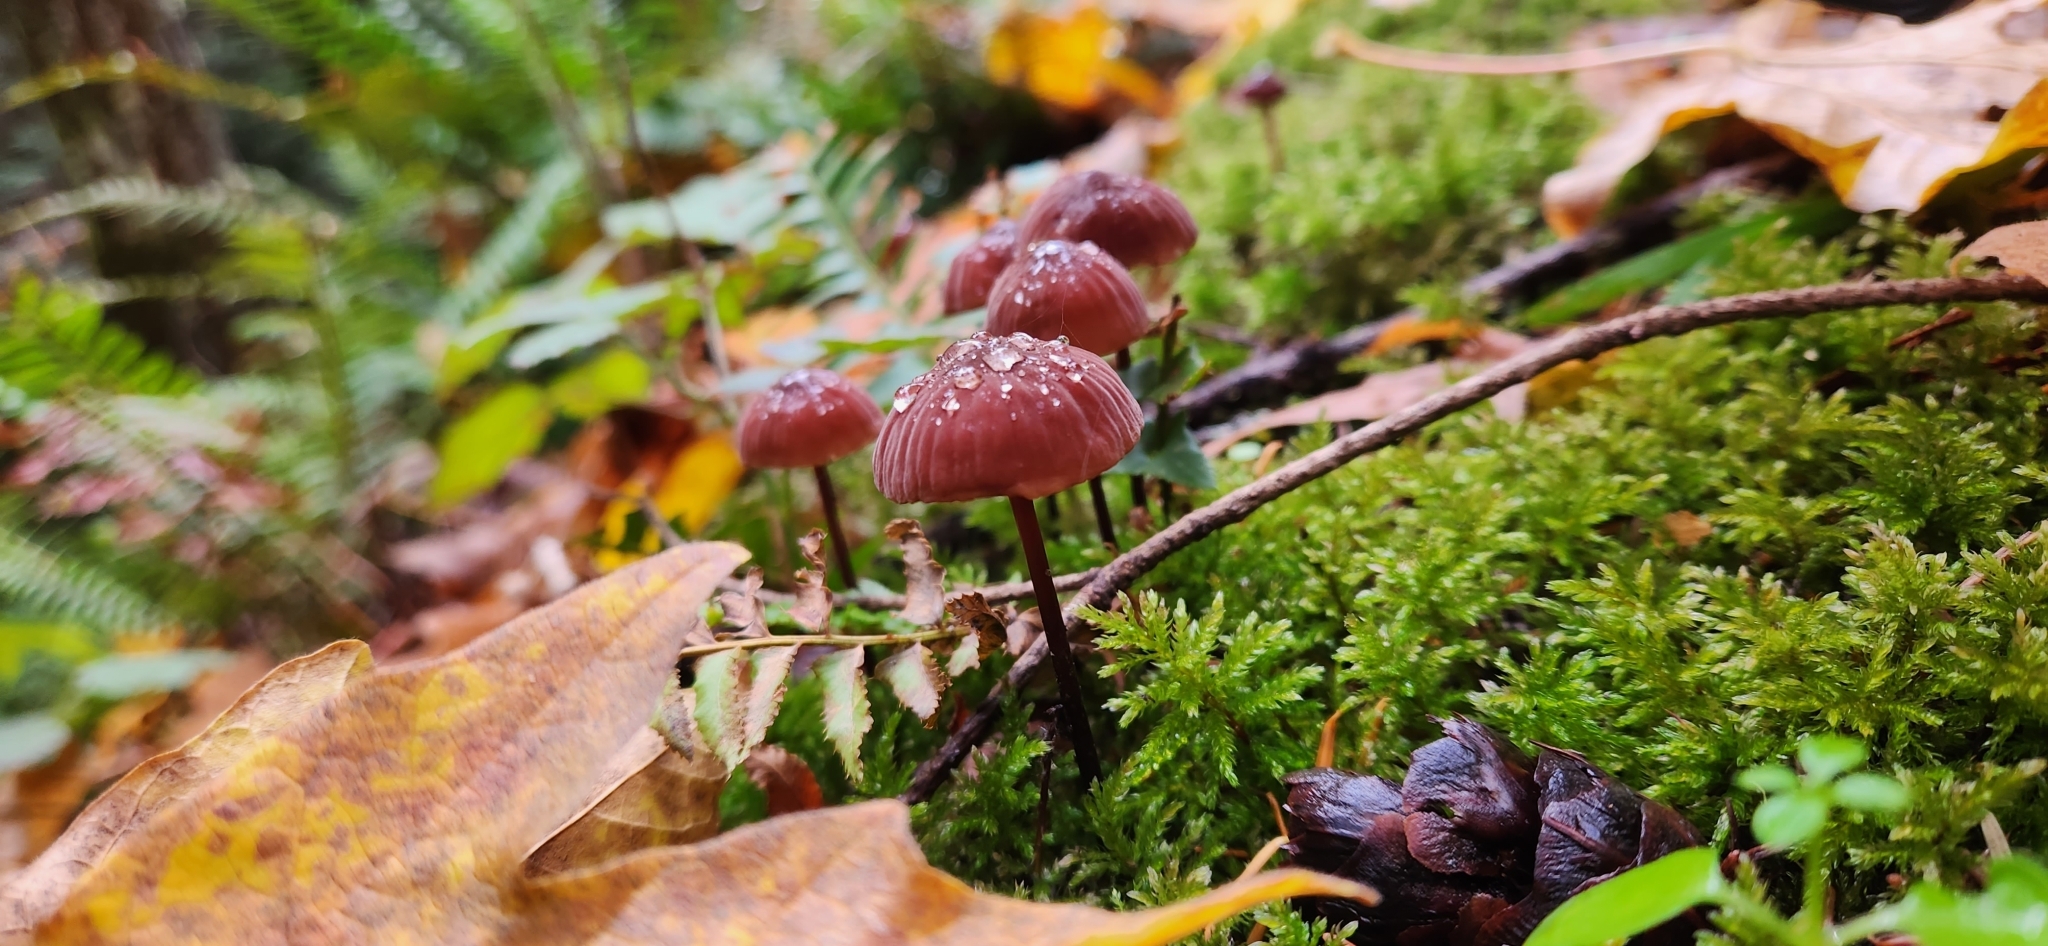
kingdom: Fungi
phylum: Basidiomycota
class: Agaricomycetes
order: Agaricales
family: Marasmiaceae
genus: Marasmius
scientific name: Marasmius plicatulus
